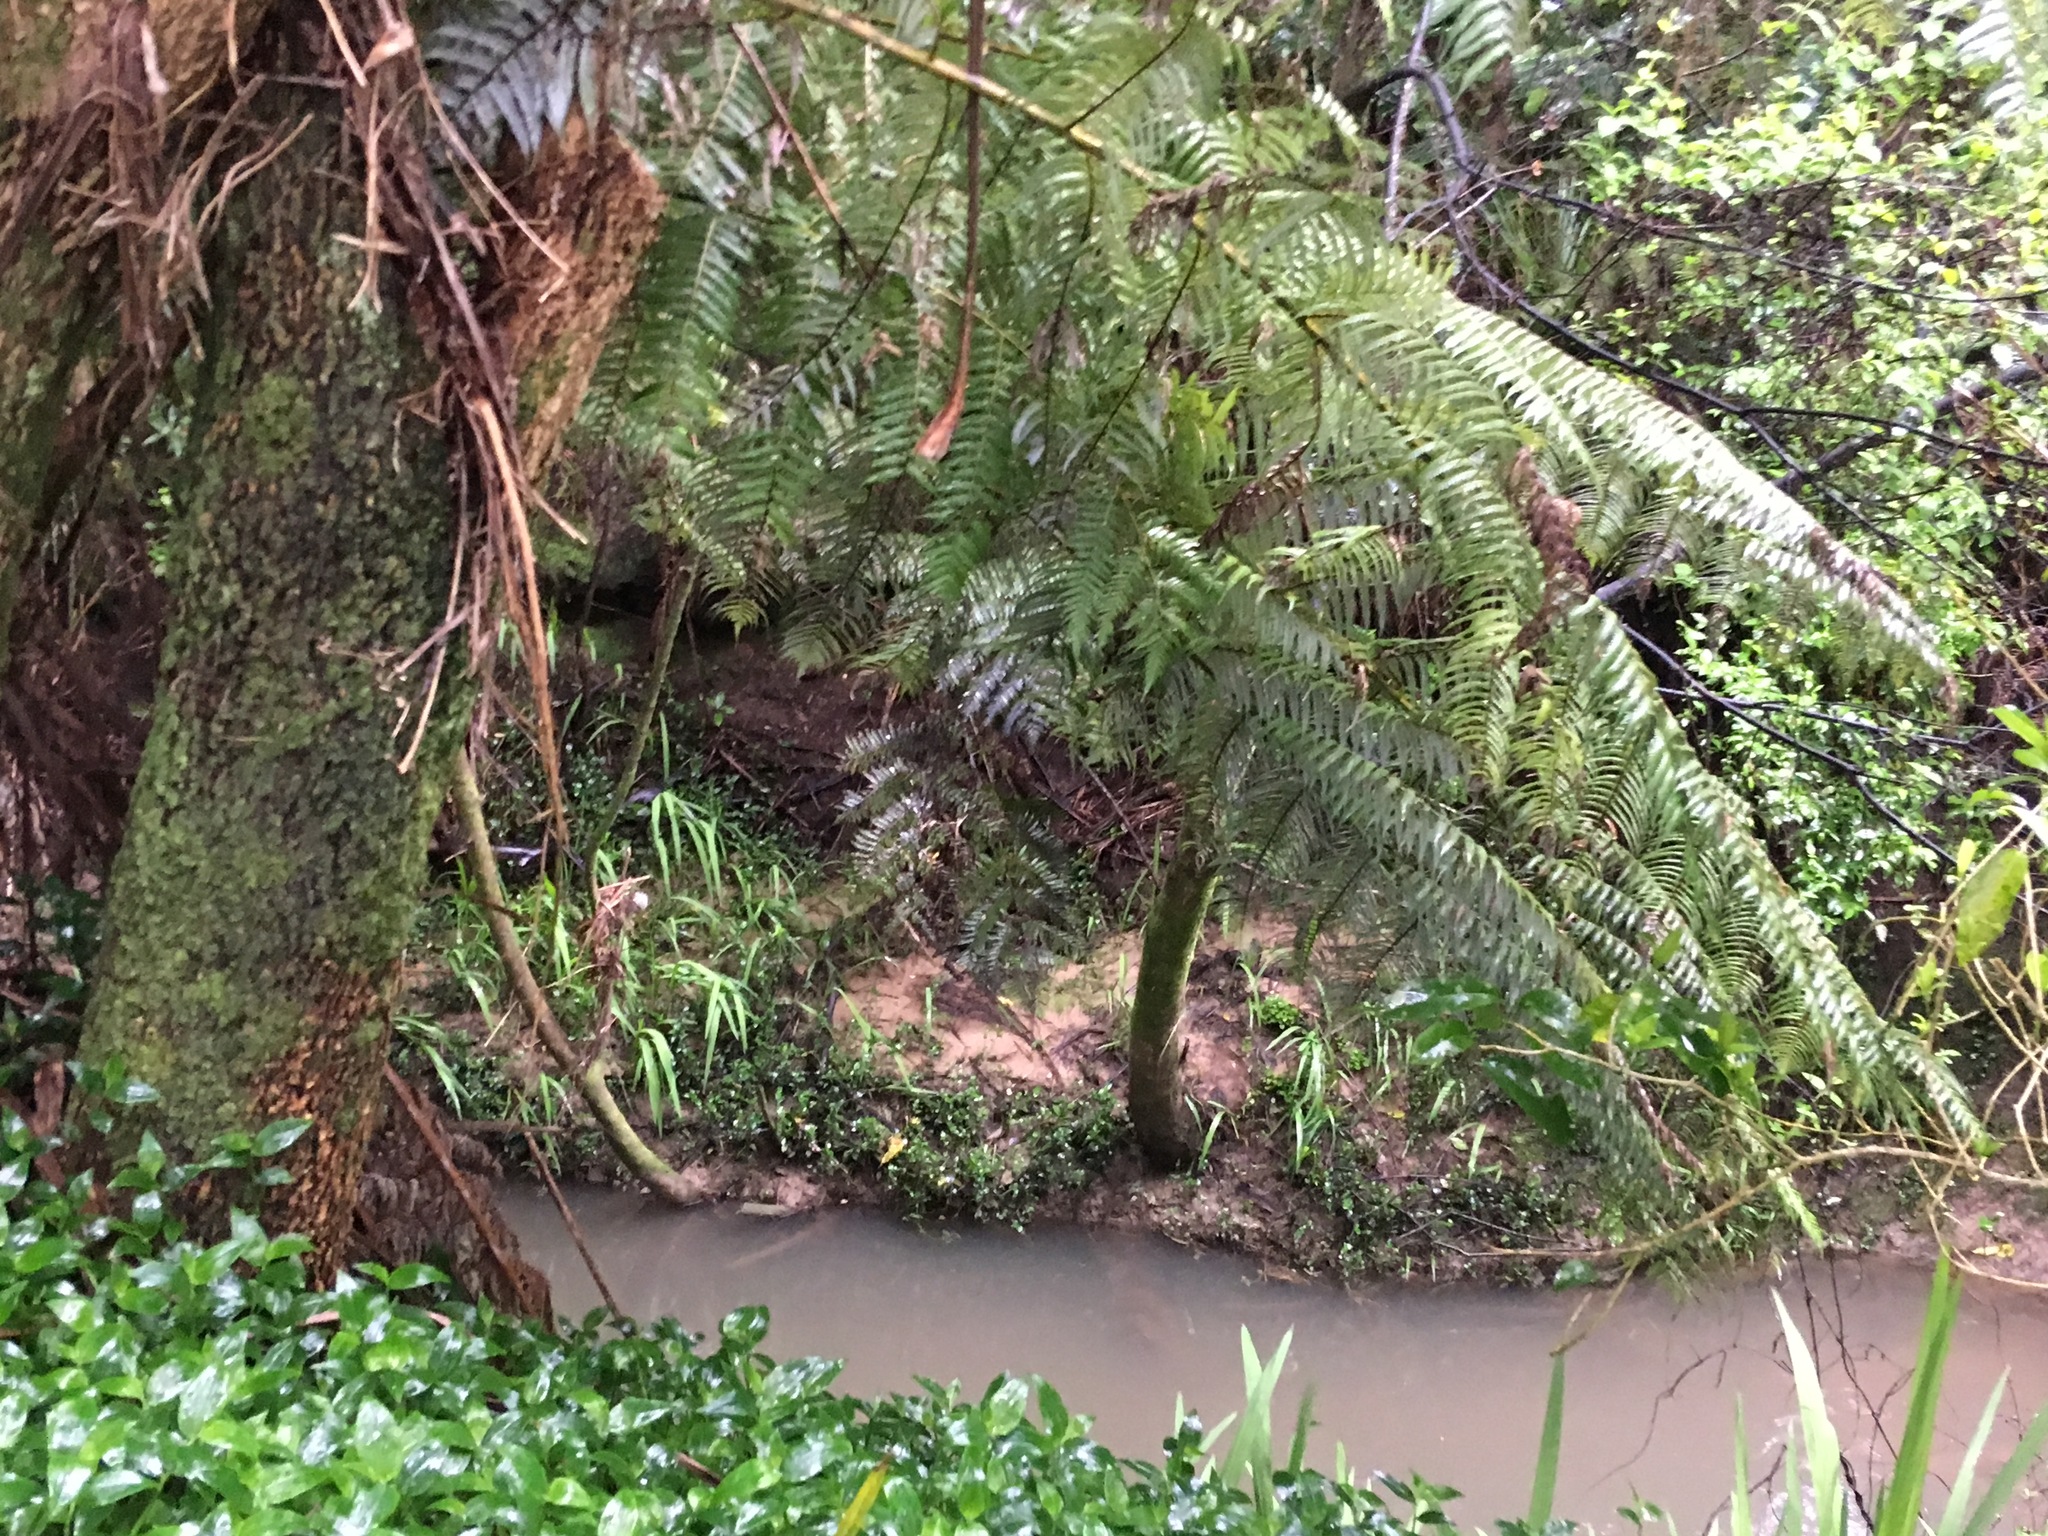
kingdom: Plantae
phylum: Tracheophyta
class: Liliopsida
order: Commelinales
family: Commelinaceae
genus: Tradescantia
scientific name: Tradescantia fluminensis
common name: Wandering-jew
